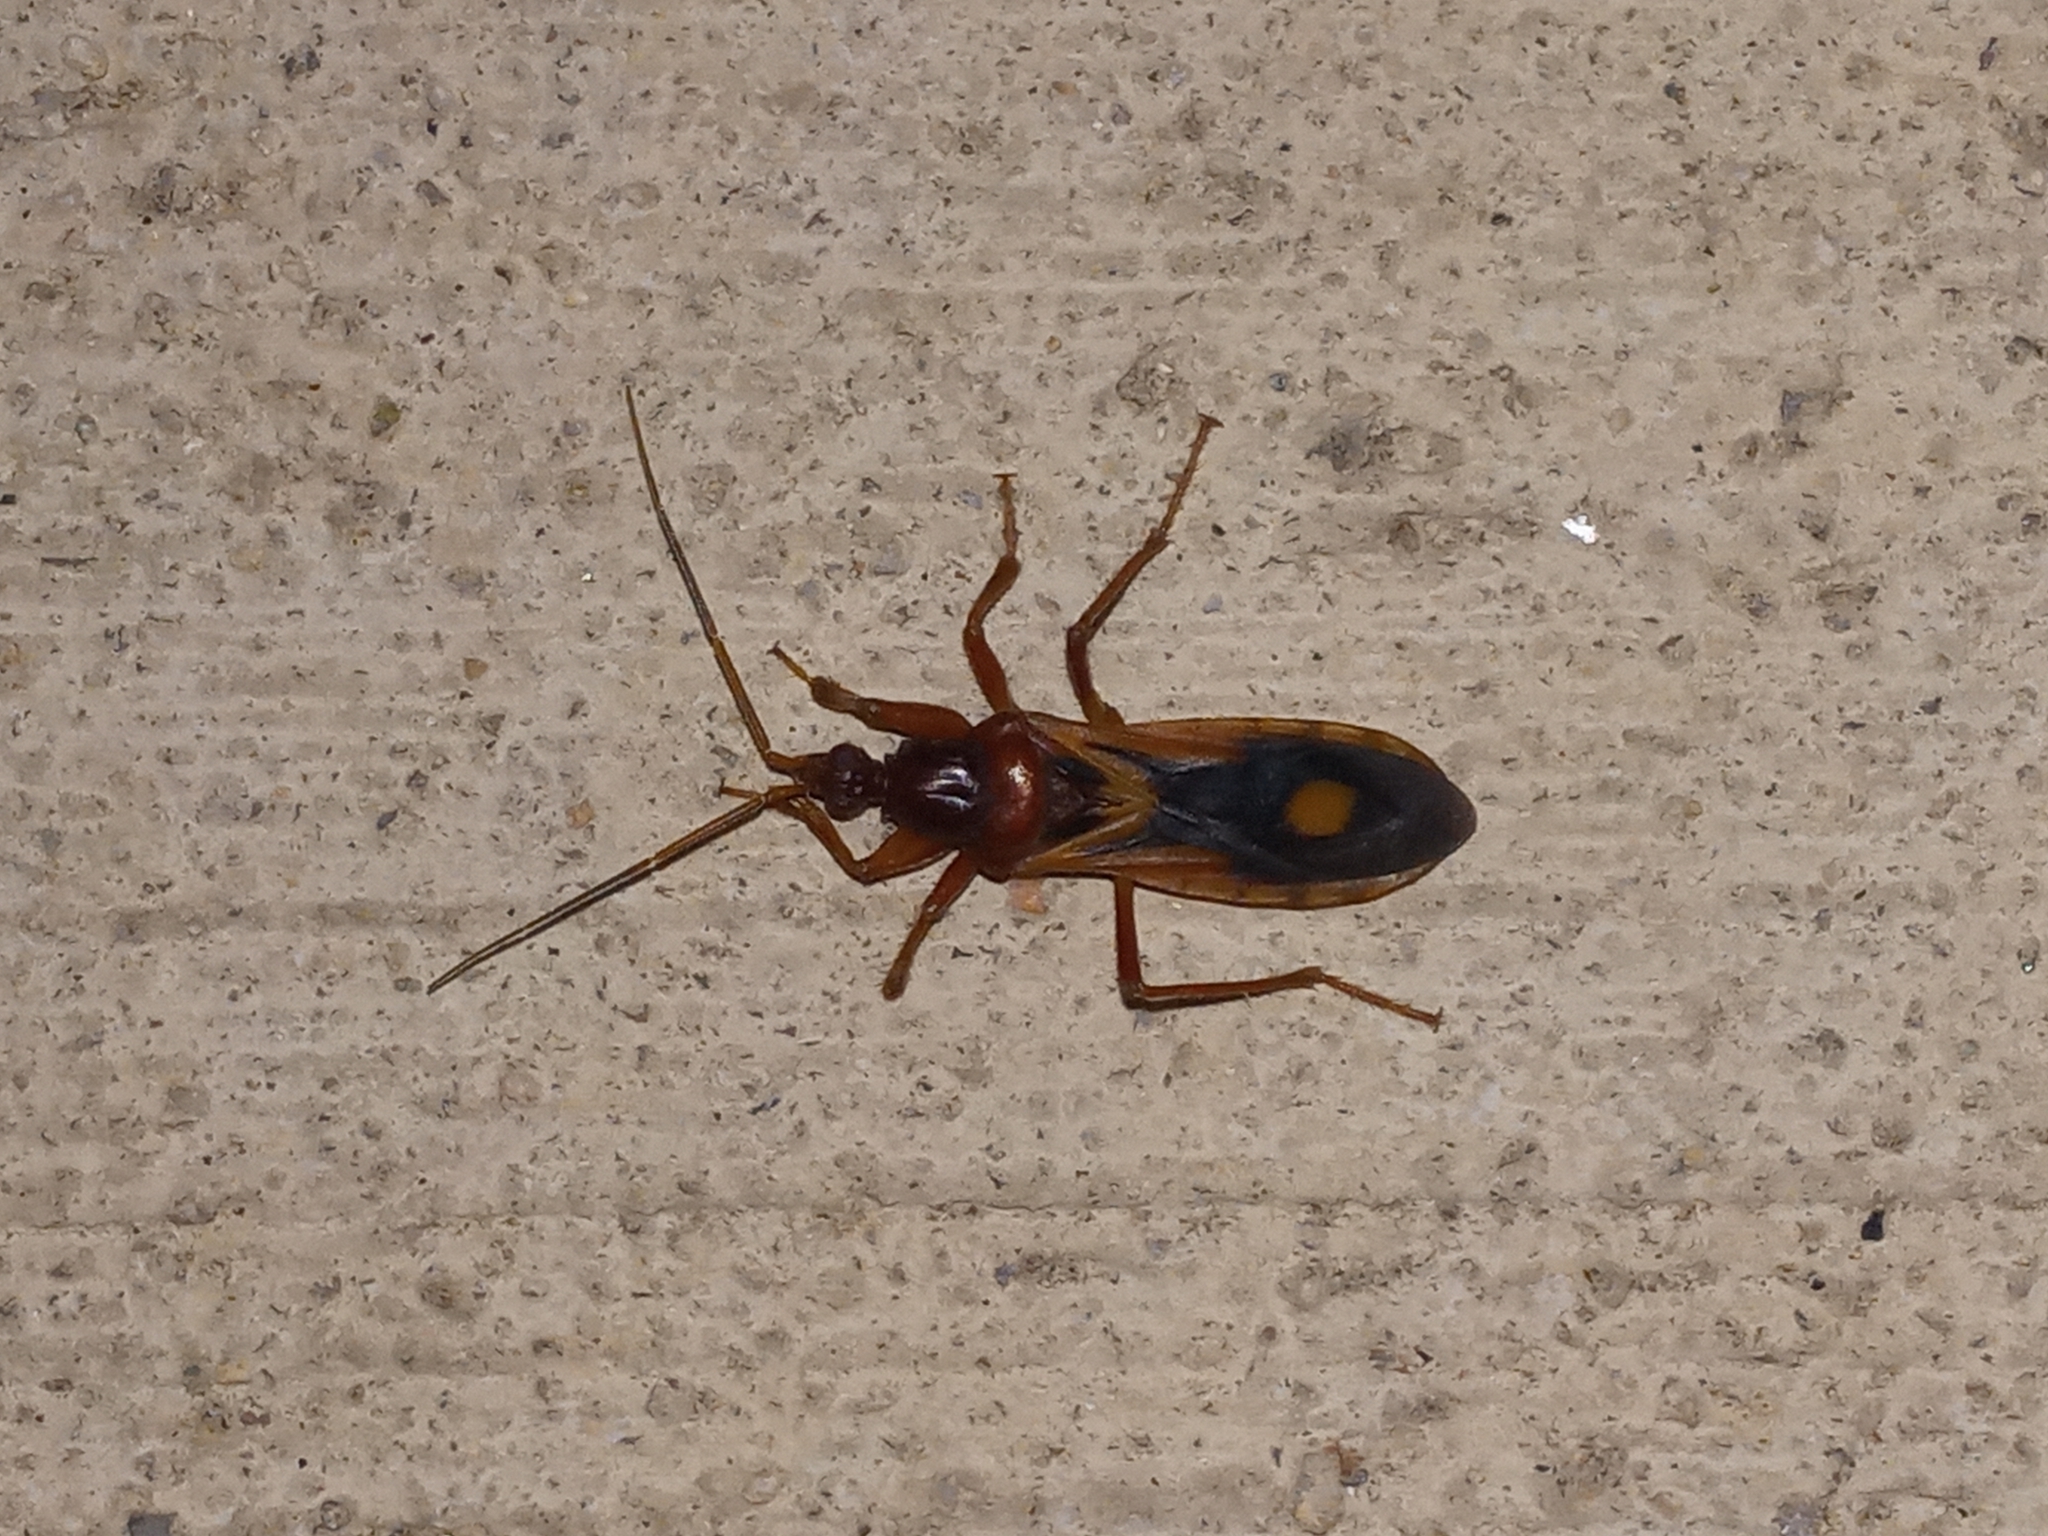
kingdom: Animalia
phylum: Arthropoda
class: Insecta
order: Hemiptera
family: Reduviidae
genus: Rasahus
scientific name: Rasahus thoracicus
